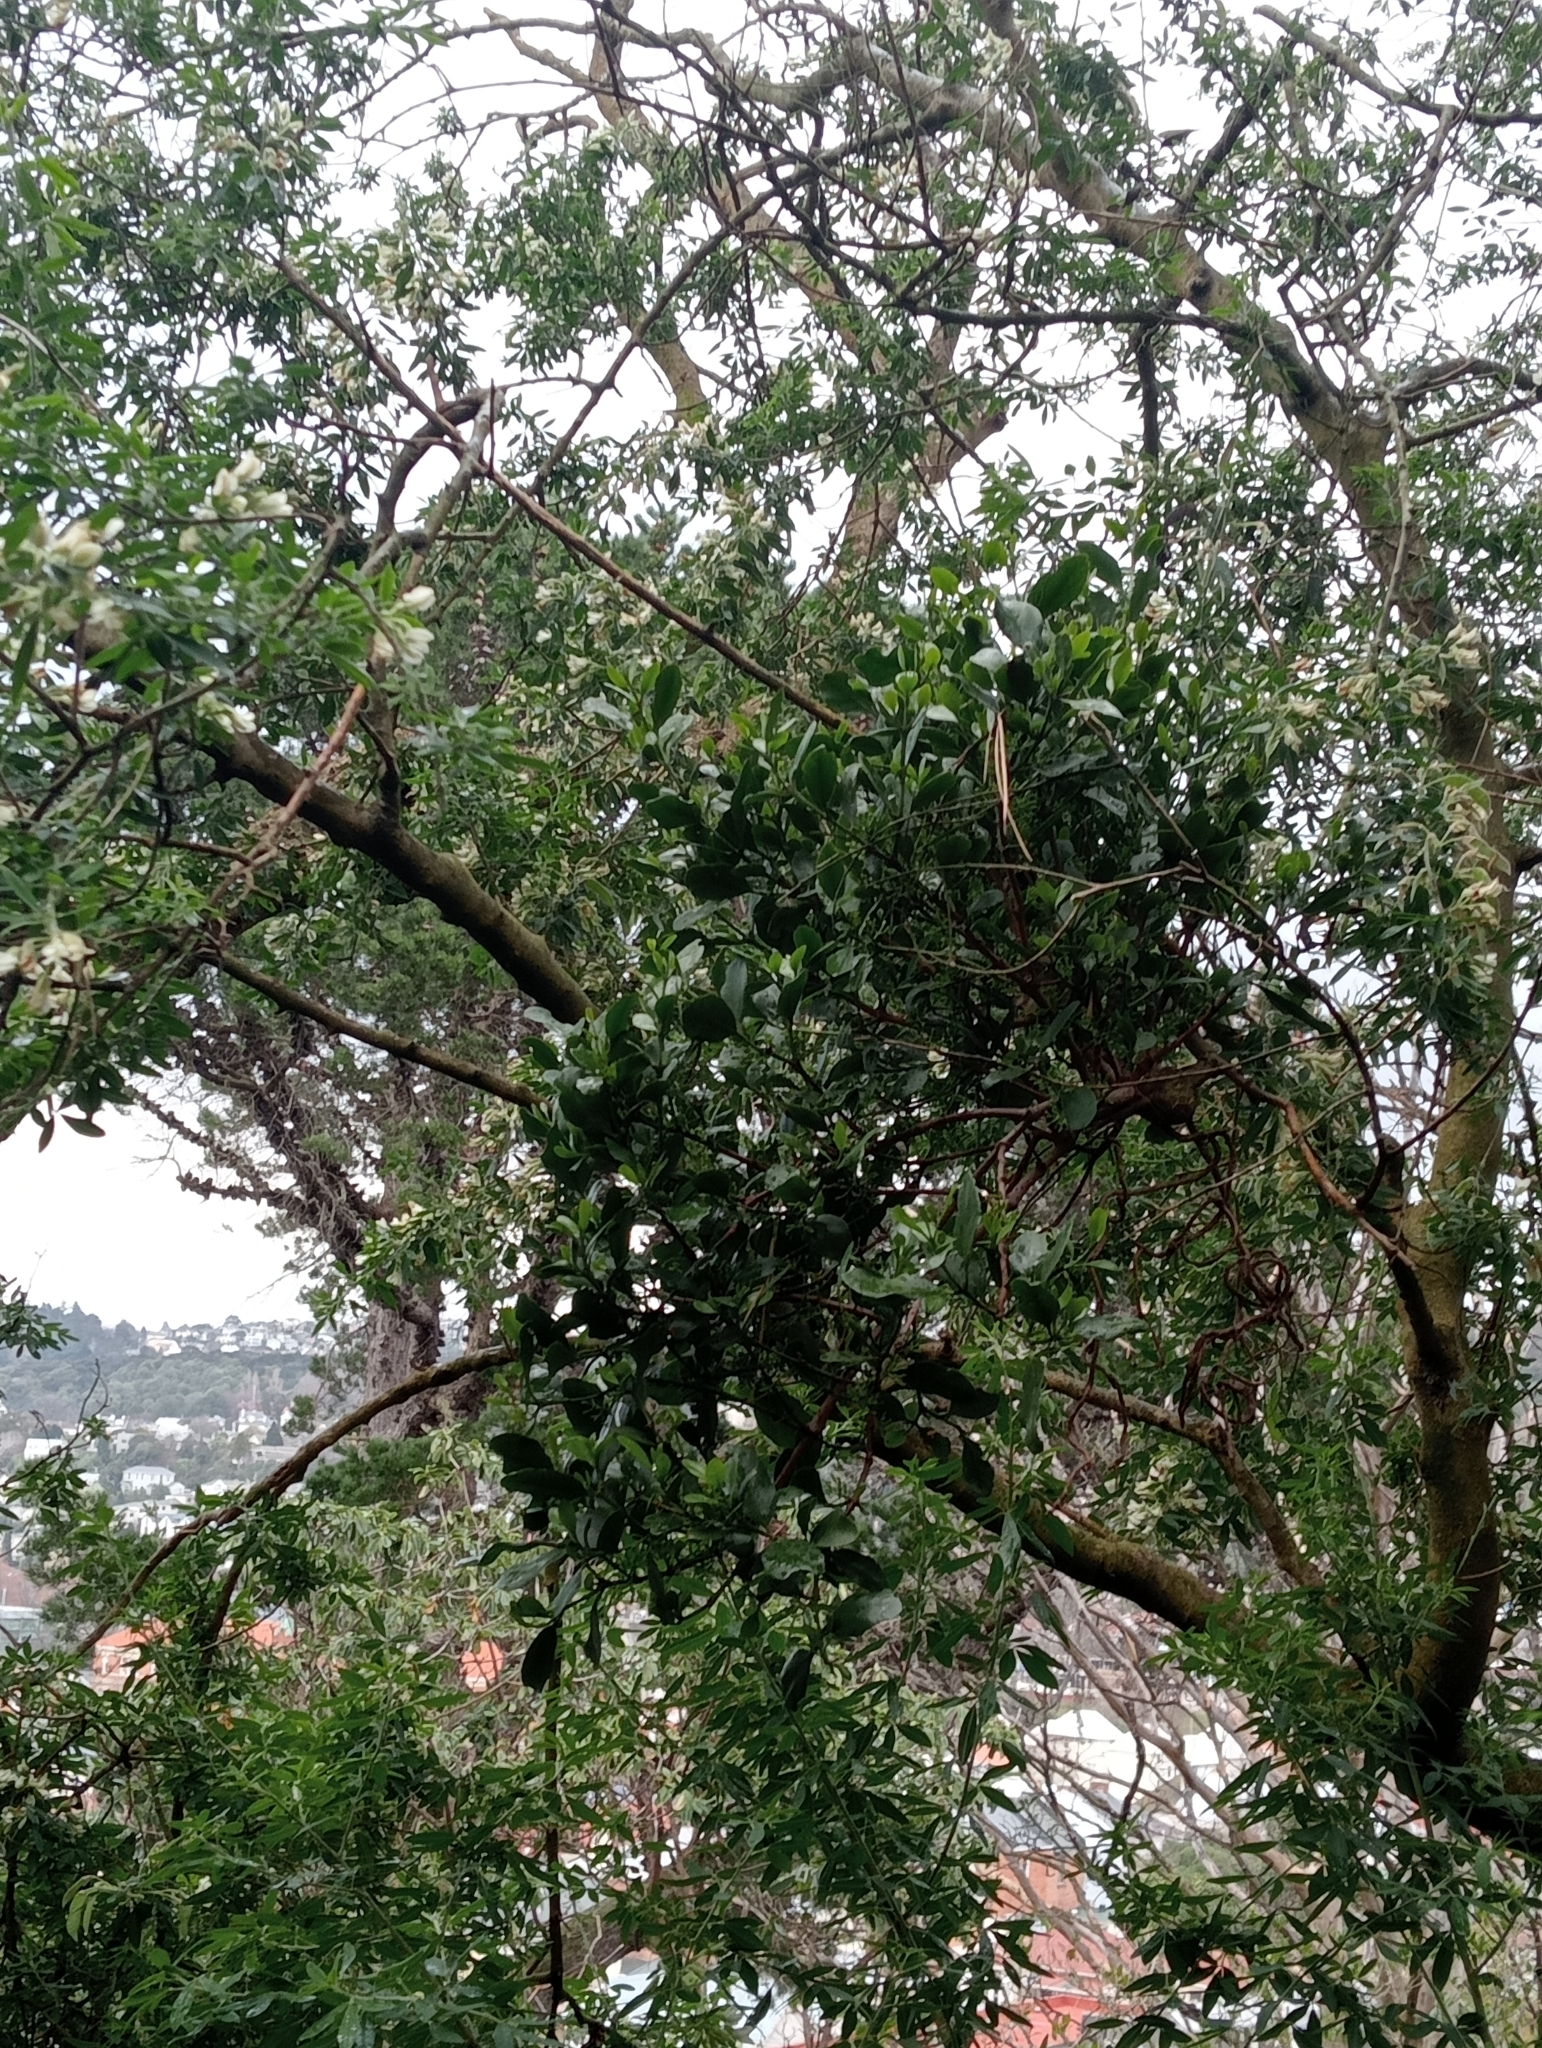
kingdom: Plantae
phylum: Tracheophyta
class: Magnoliopsida
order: Santalales
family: Loranthaceae
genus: Ileostylus
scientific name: Ileostylus micranthus
